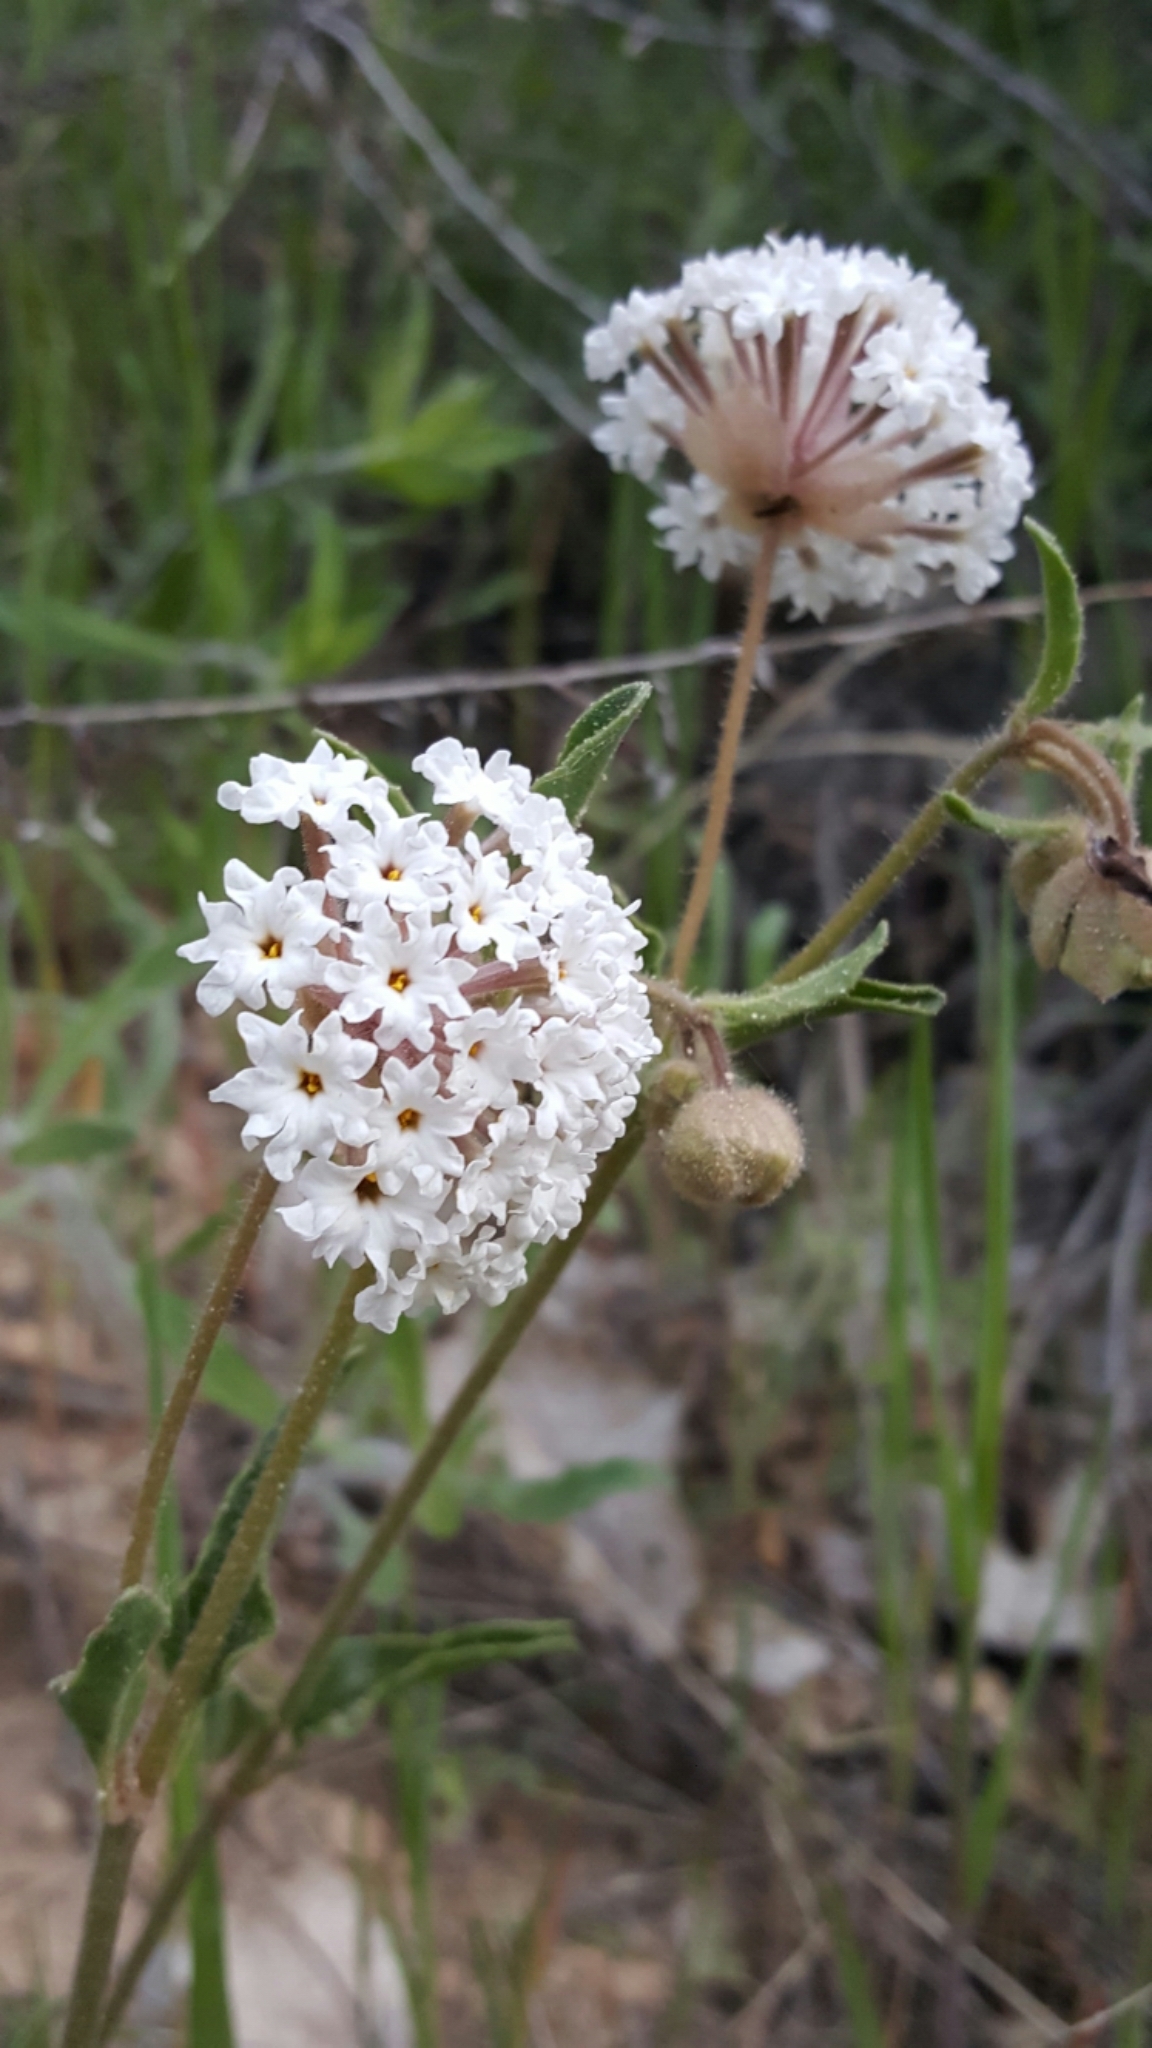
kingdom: Plantae
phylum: Tracheophyta
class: Magnoliopsida
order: Caryophyllales
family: Nyctaginaceae
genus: Abronia
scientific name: Abronia elliptica
